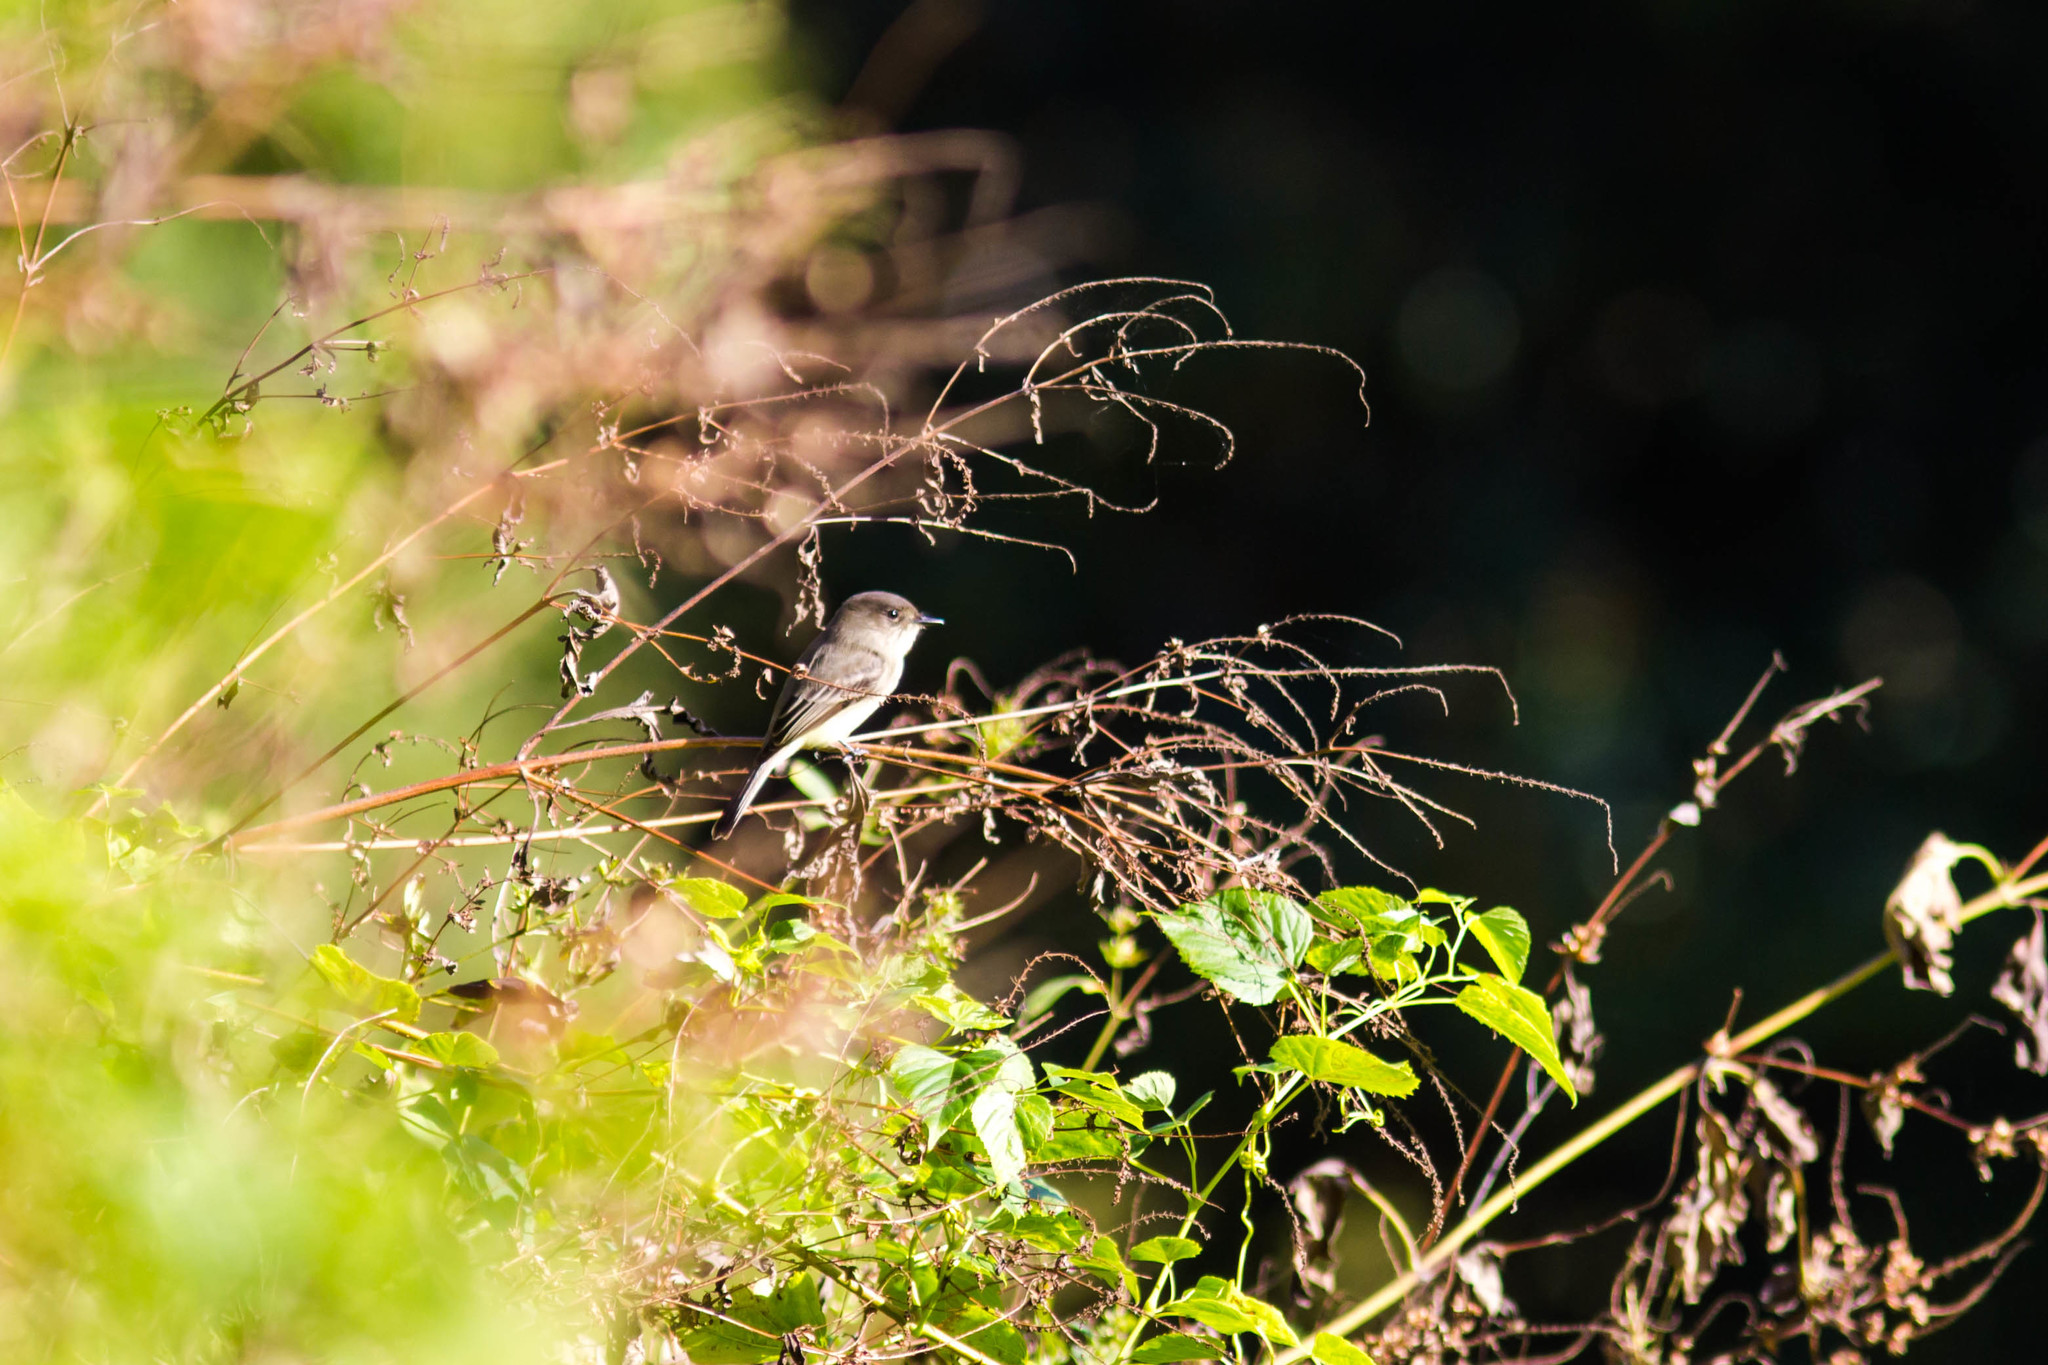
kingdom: Animalia
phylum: Chordata
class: Aves
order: Passeriformes
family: Tyrannidae
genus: Sayornis
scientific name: Sayornis phoebe
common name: Eastern phoebe
